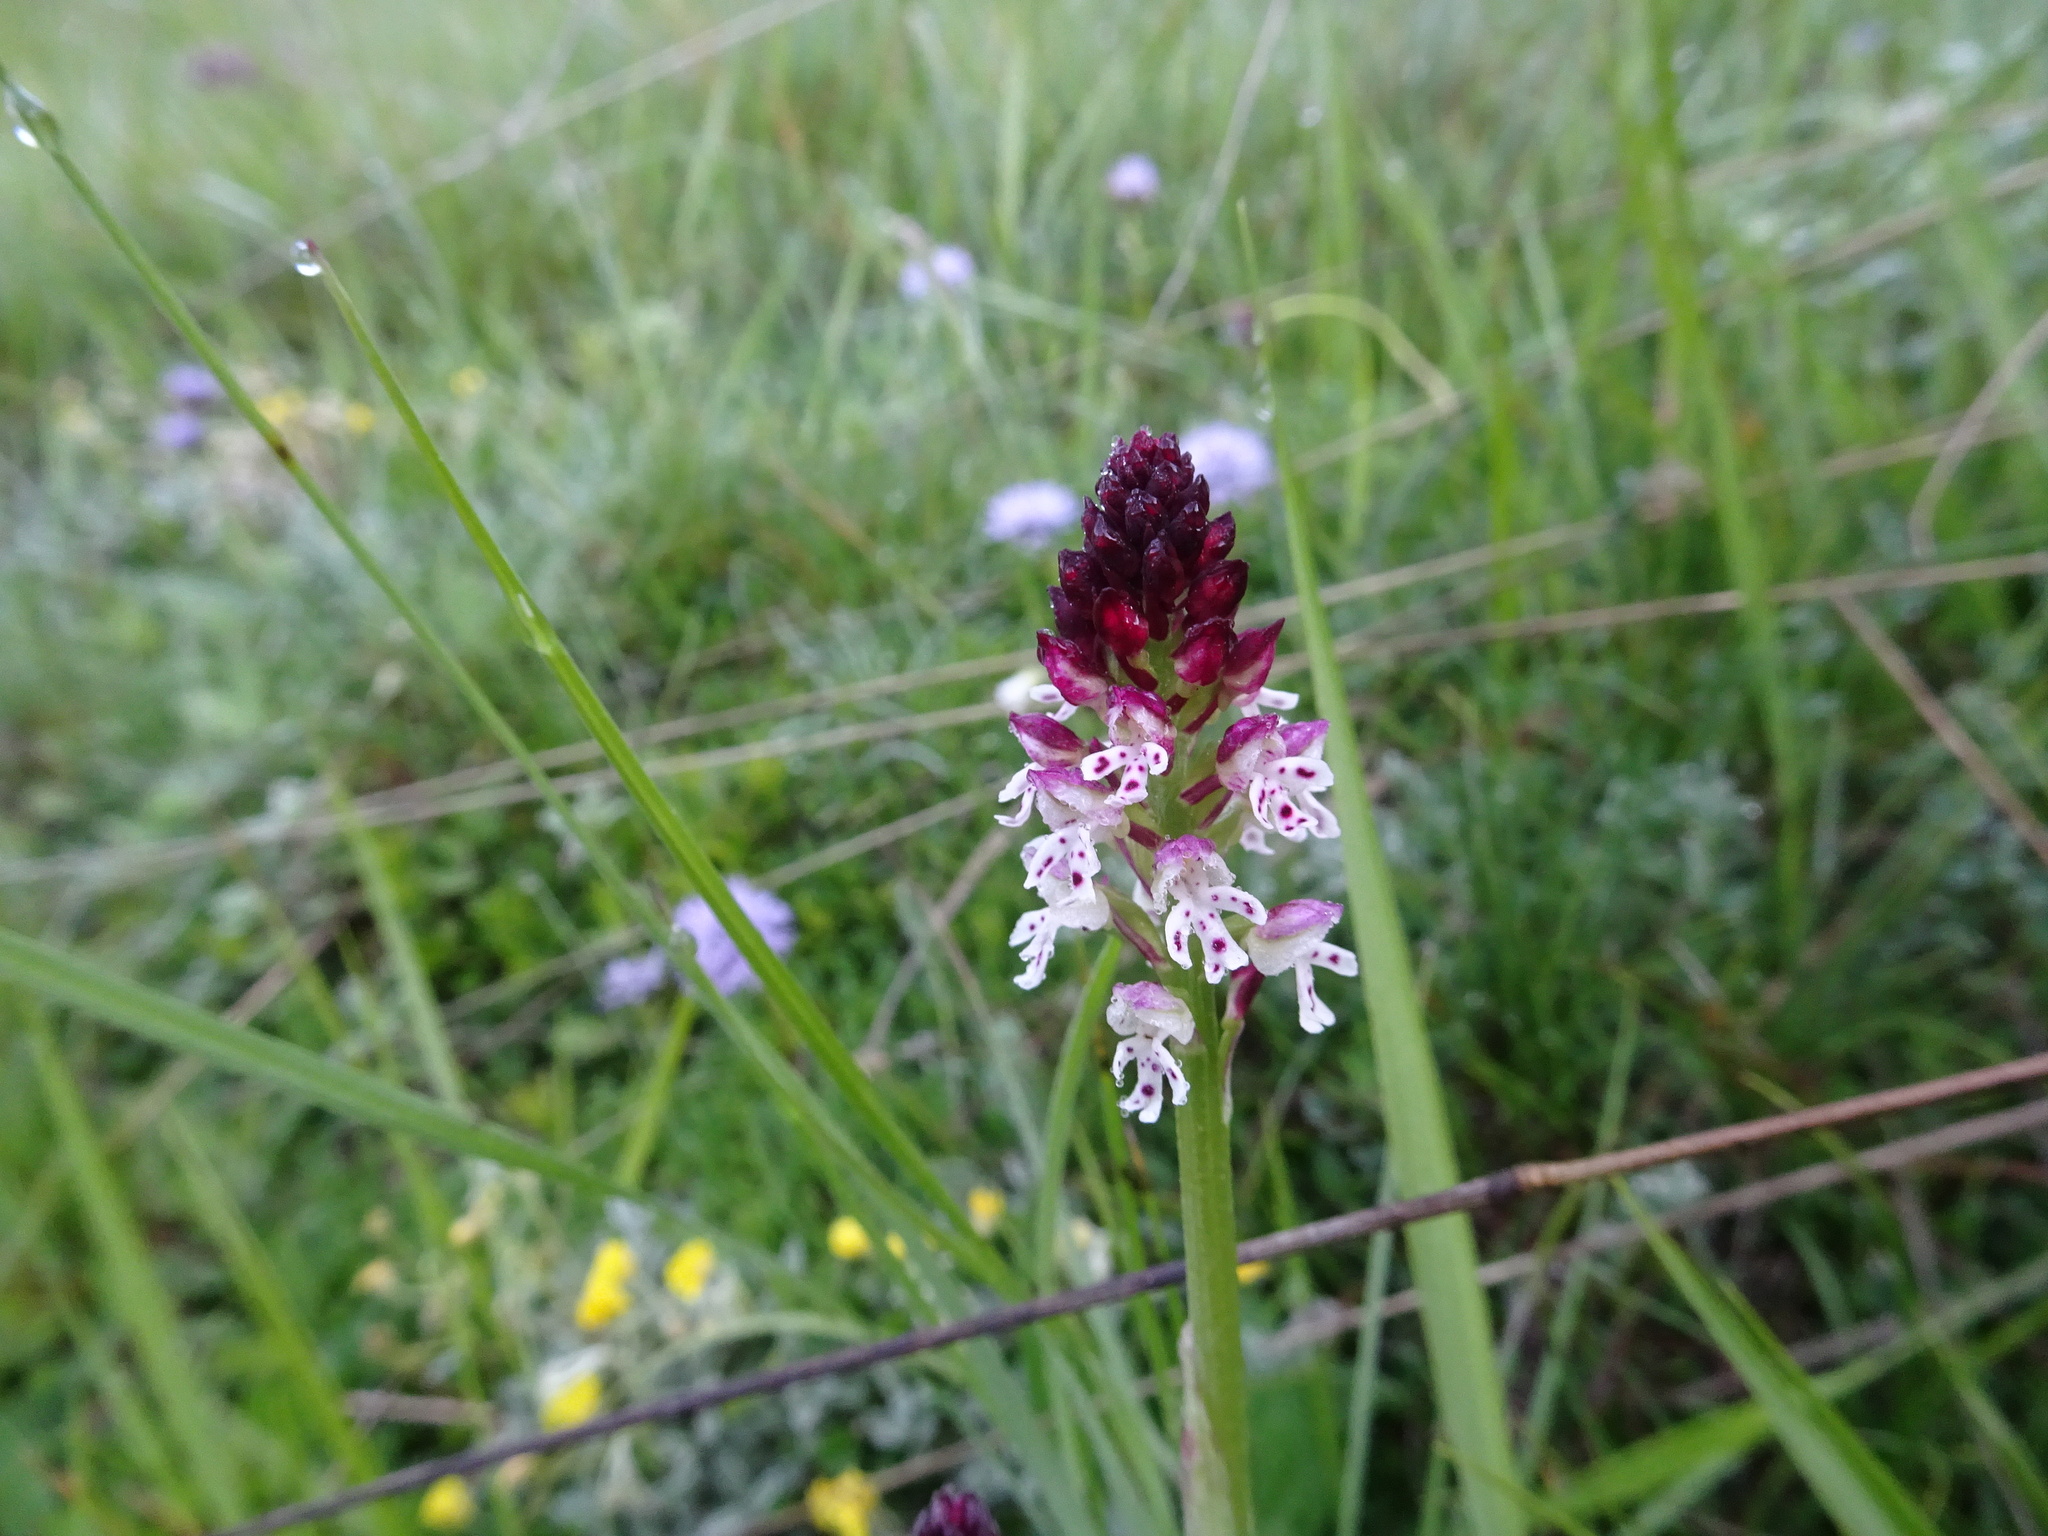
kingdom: Plantae
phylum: Tracheophyta
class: Liliopsida
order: Asparagales
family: Orchidaceae
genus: Neotinea
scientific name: Neotinea ustulata
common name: Burnt orchid
